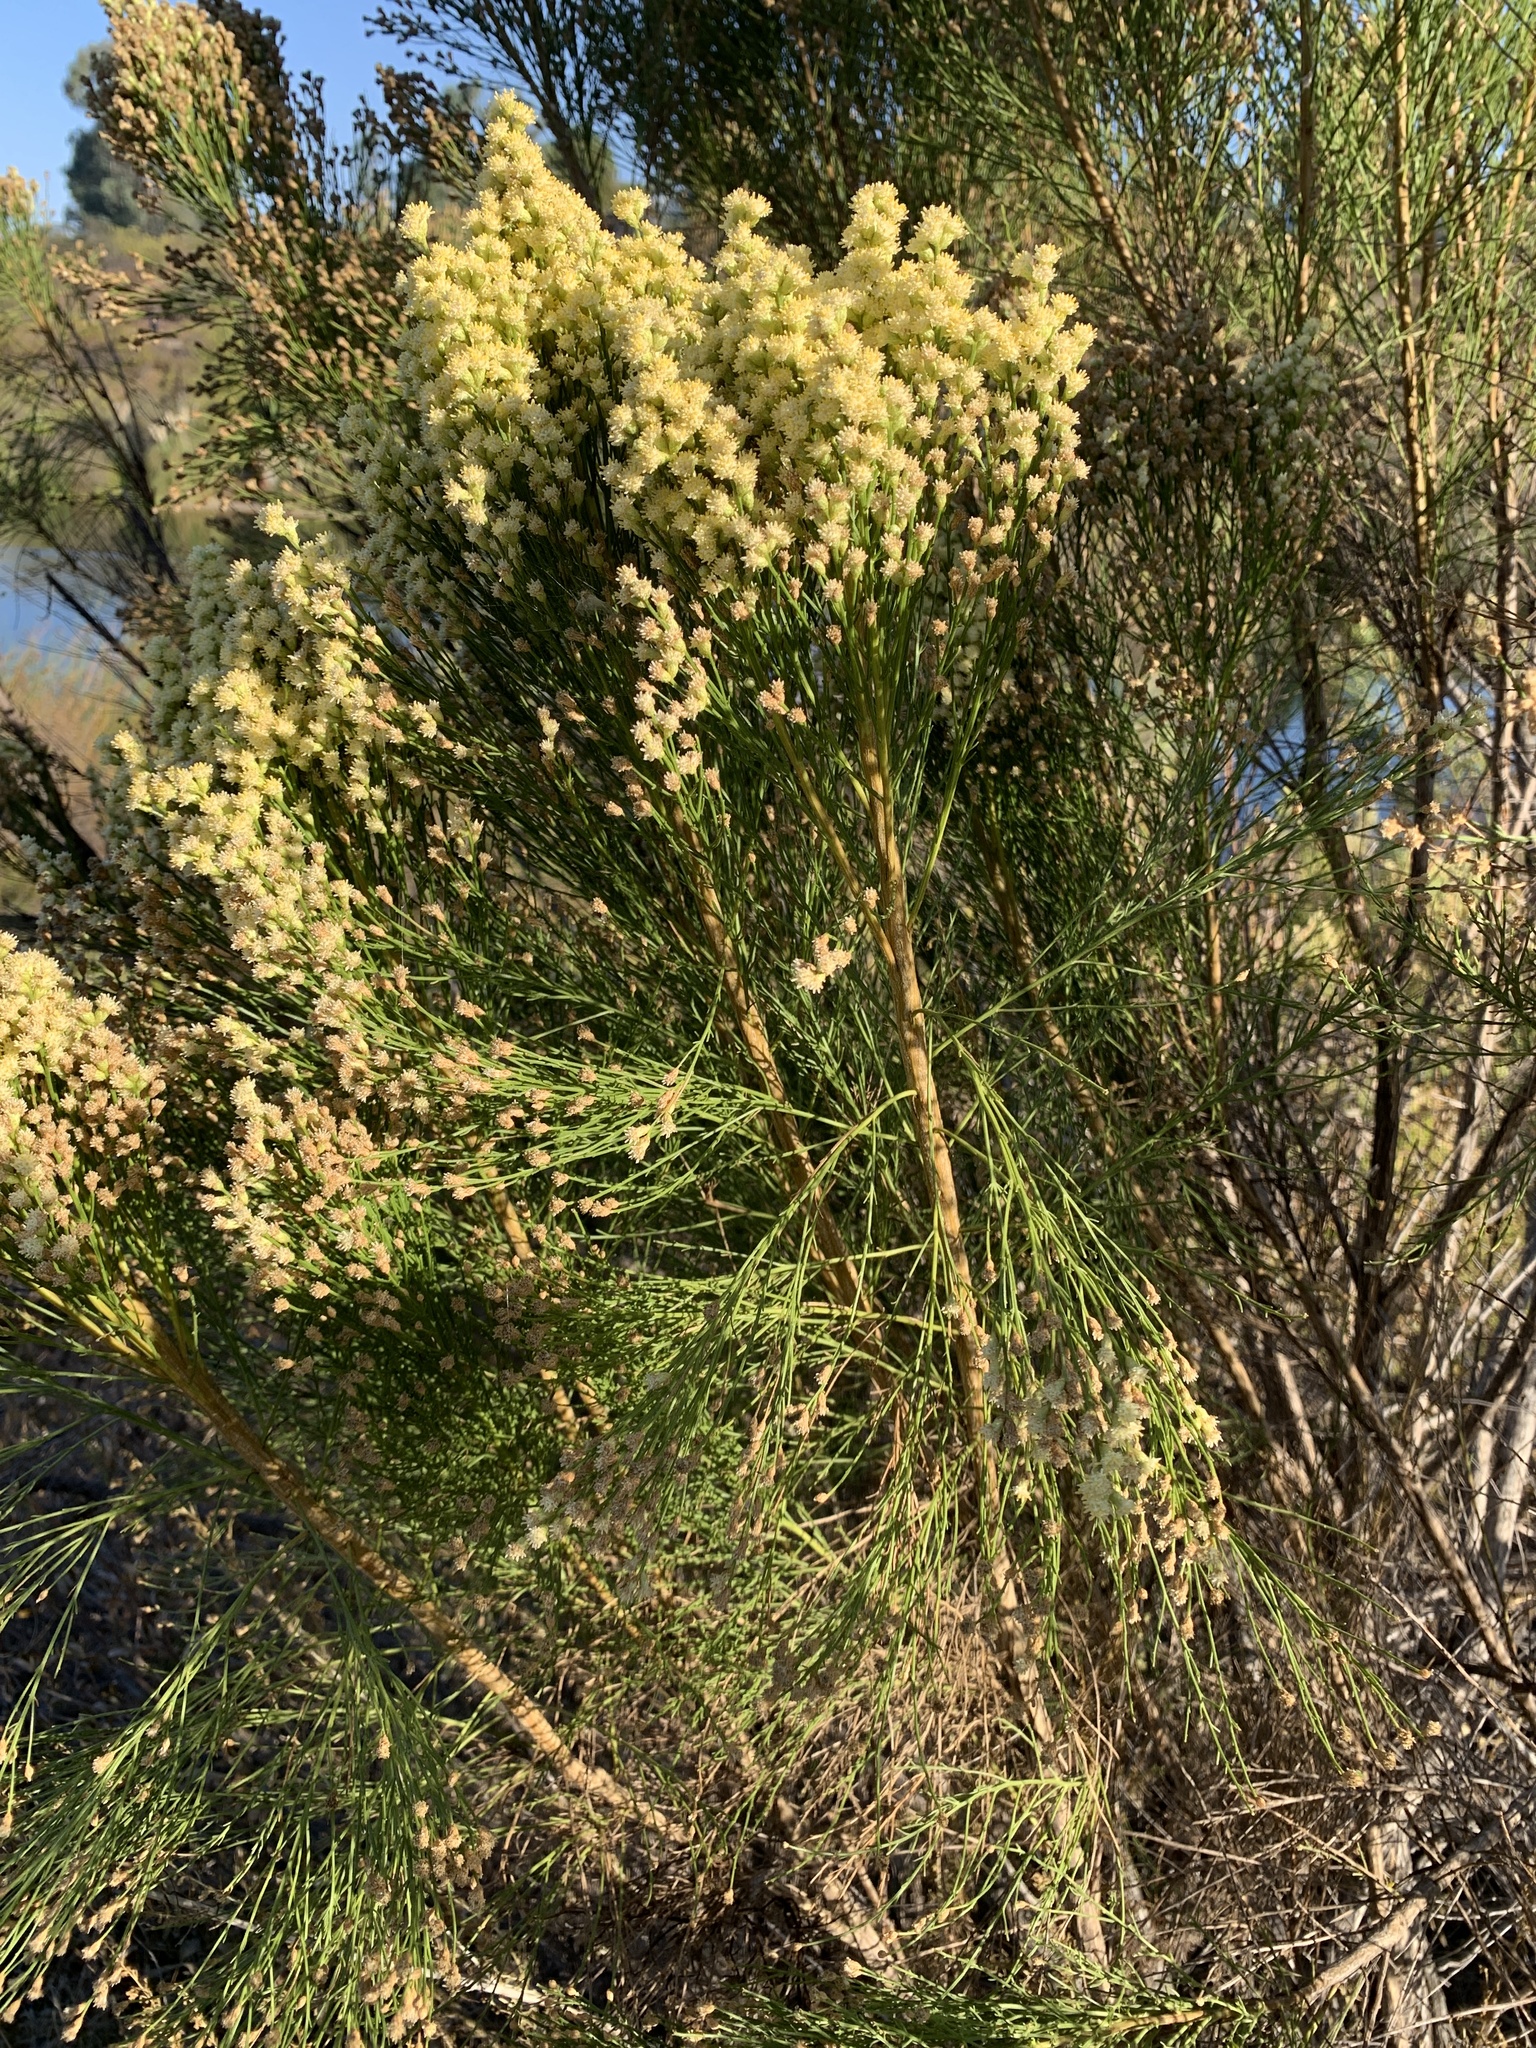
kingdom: Plantae
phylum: Tracheophyta
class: Magnoliopsida
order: Asterales
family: Asteraceae
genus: Baccharis
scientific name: Baccharis sarothroides
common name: Desert-broom
